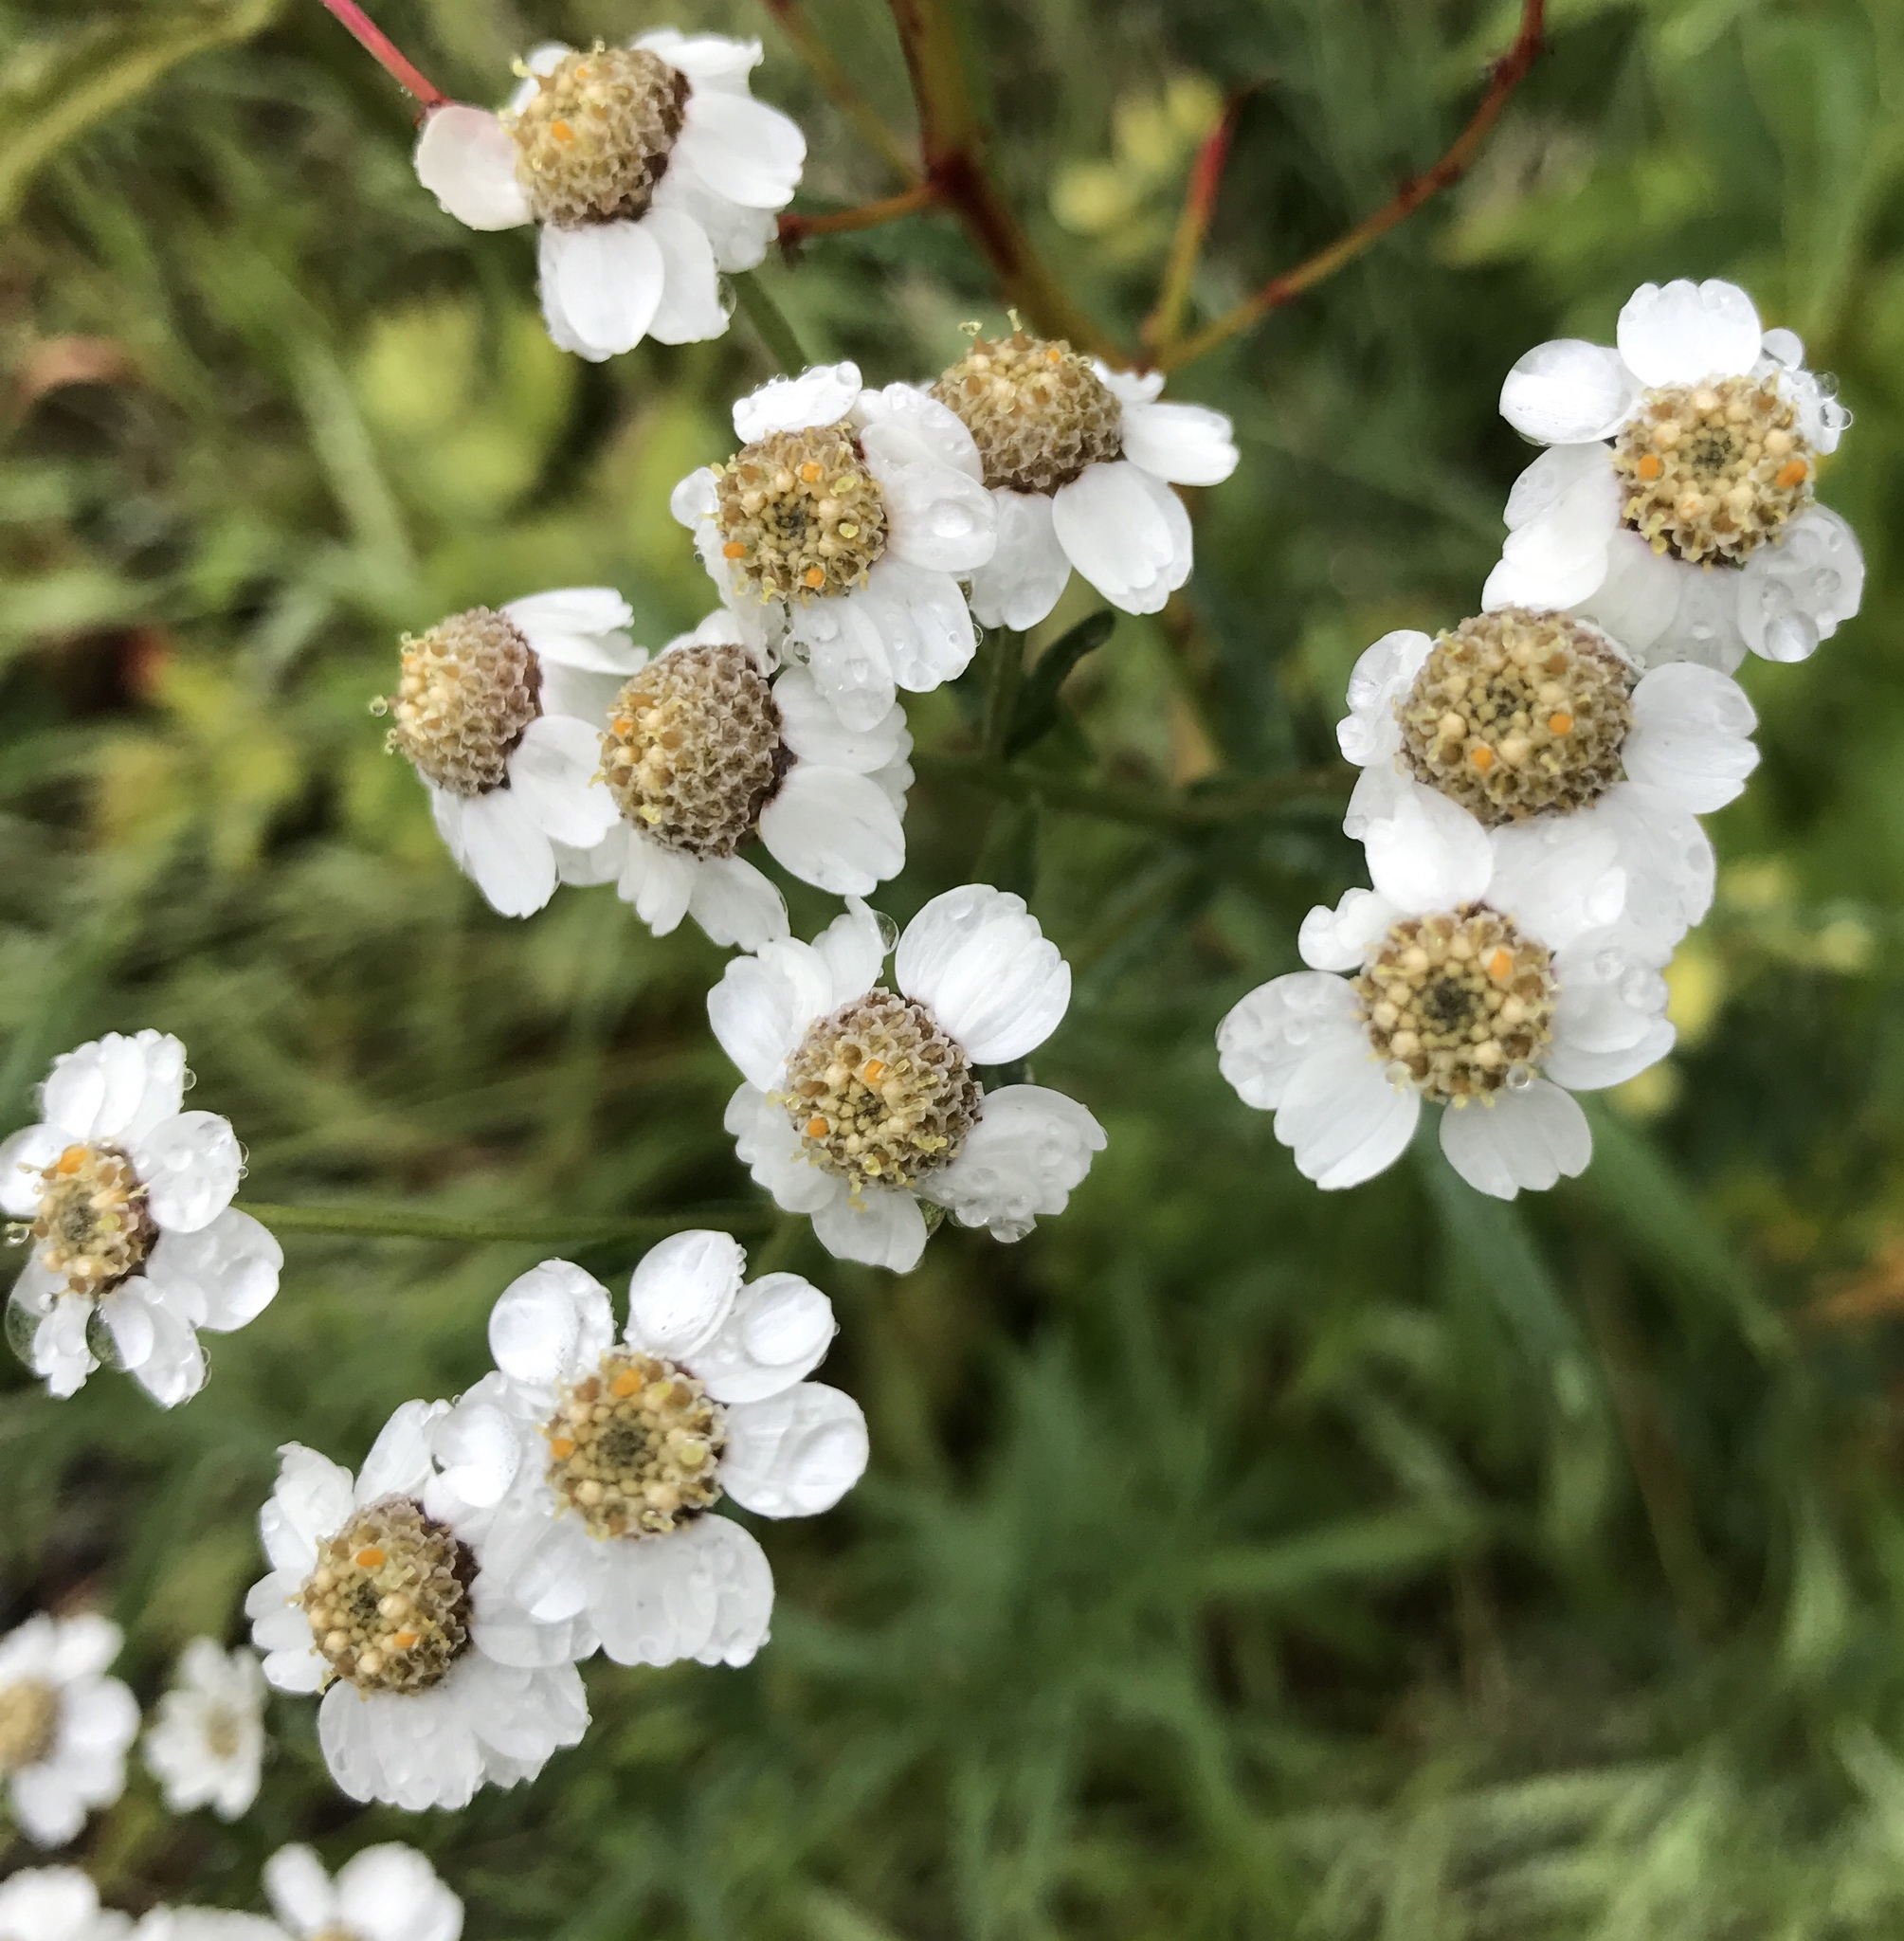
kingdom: Plantae
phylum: Tracheophyta
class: Magnoliopsida
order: Asterales
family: Asteraceae
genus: Achillea
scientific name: Achillea ptarmica
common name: Sneezeweed
